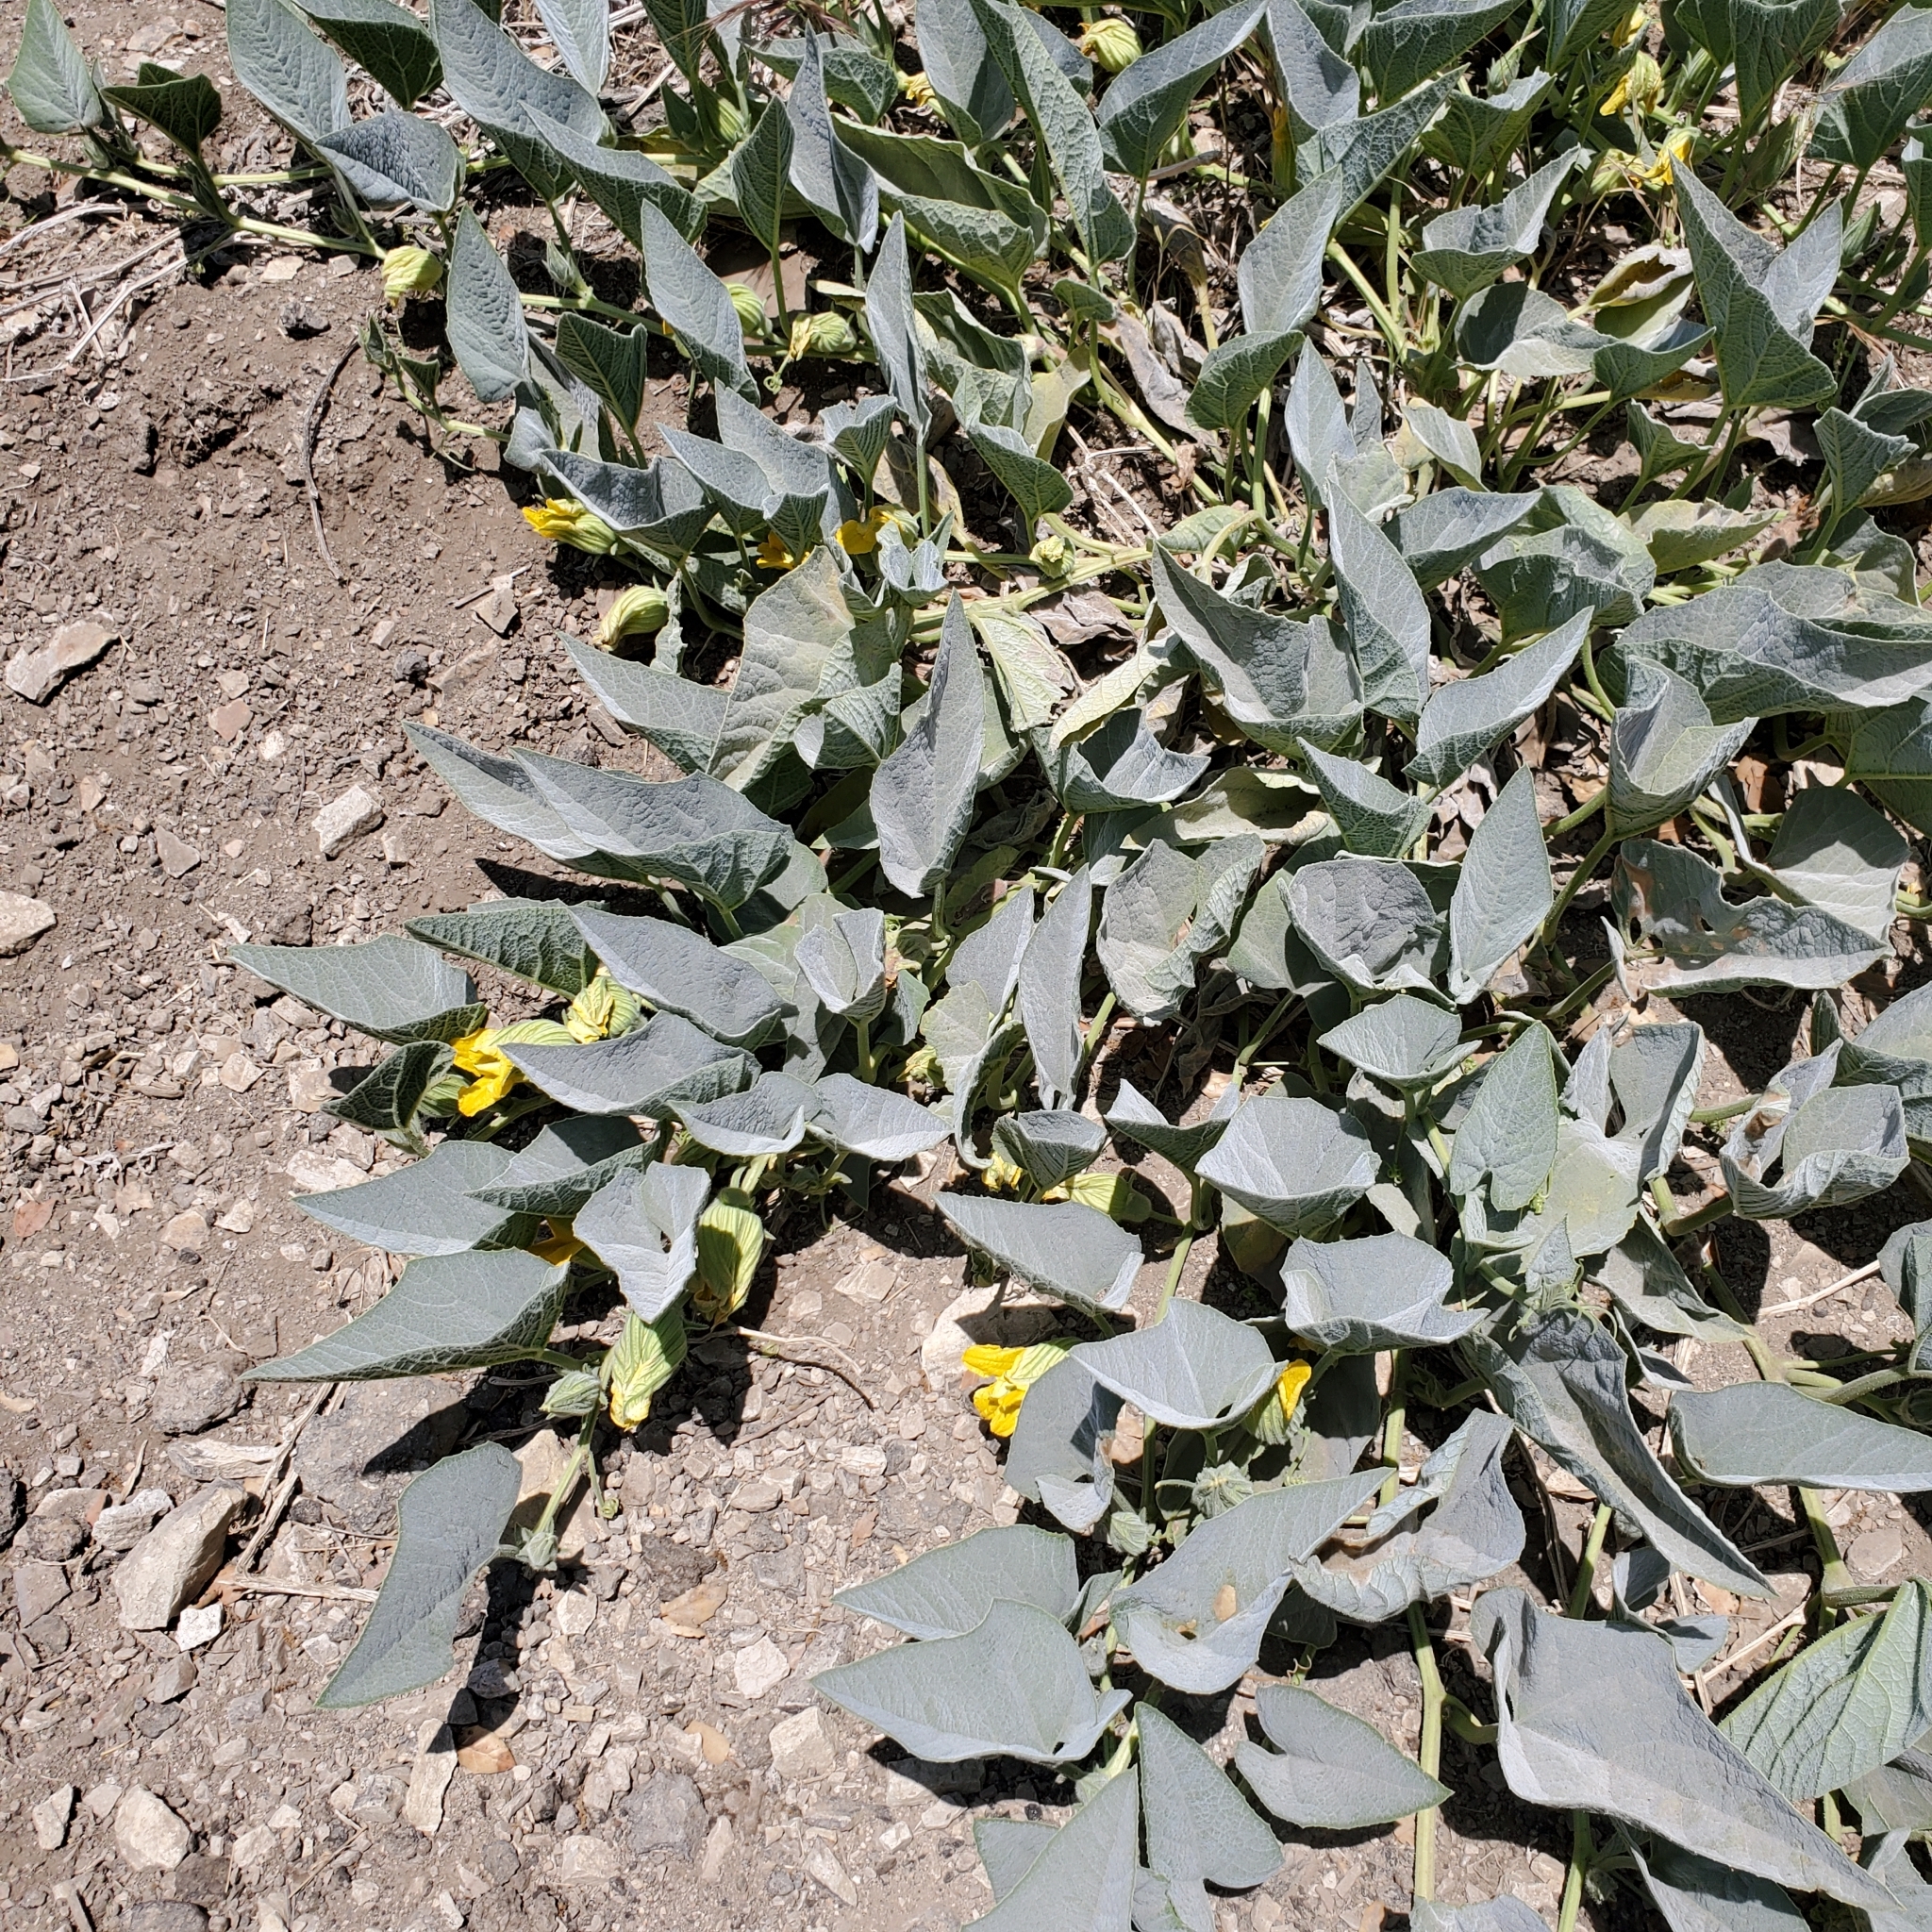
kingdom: Plantae
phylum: Tracheophyta
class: Magnoliopsida
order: Cucurbitales
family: Cucurbitaceae
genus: Cucurbita
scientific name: Cucurbita foetidissima
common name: Buffalo gourd
